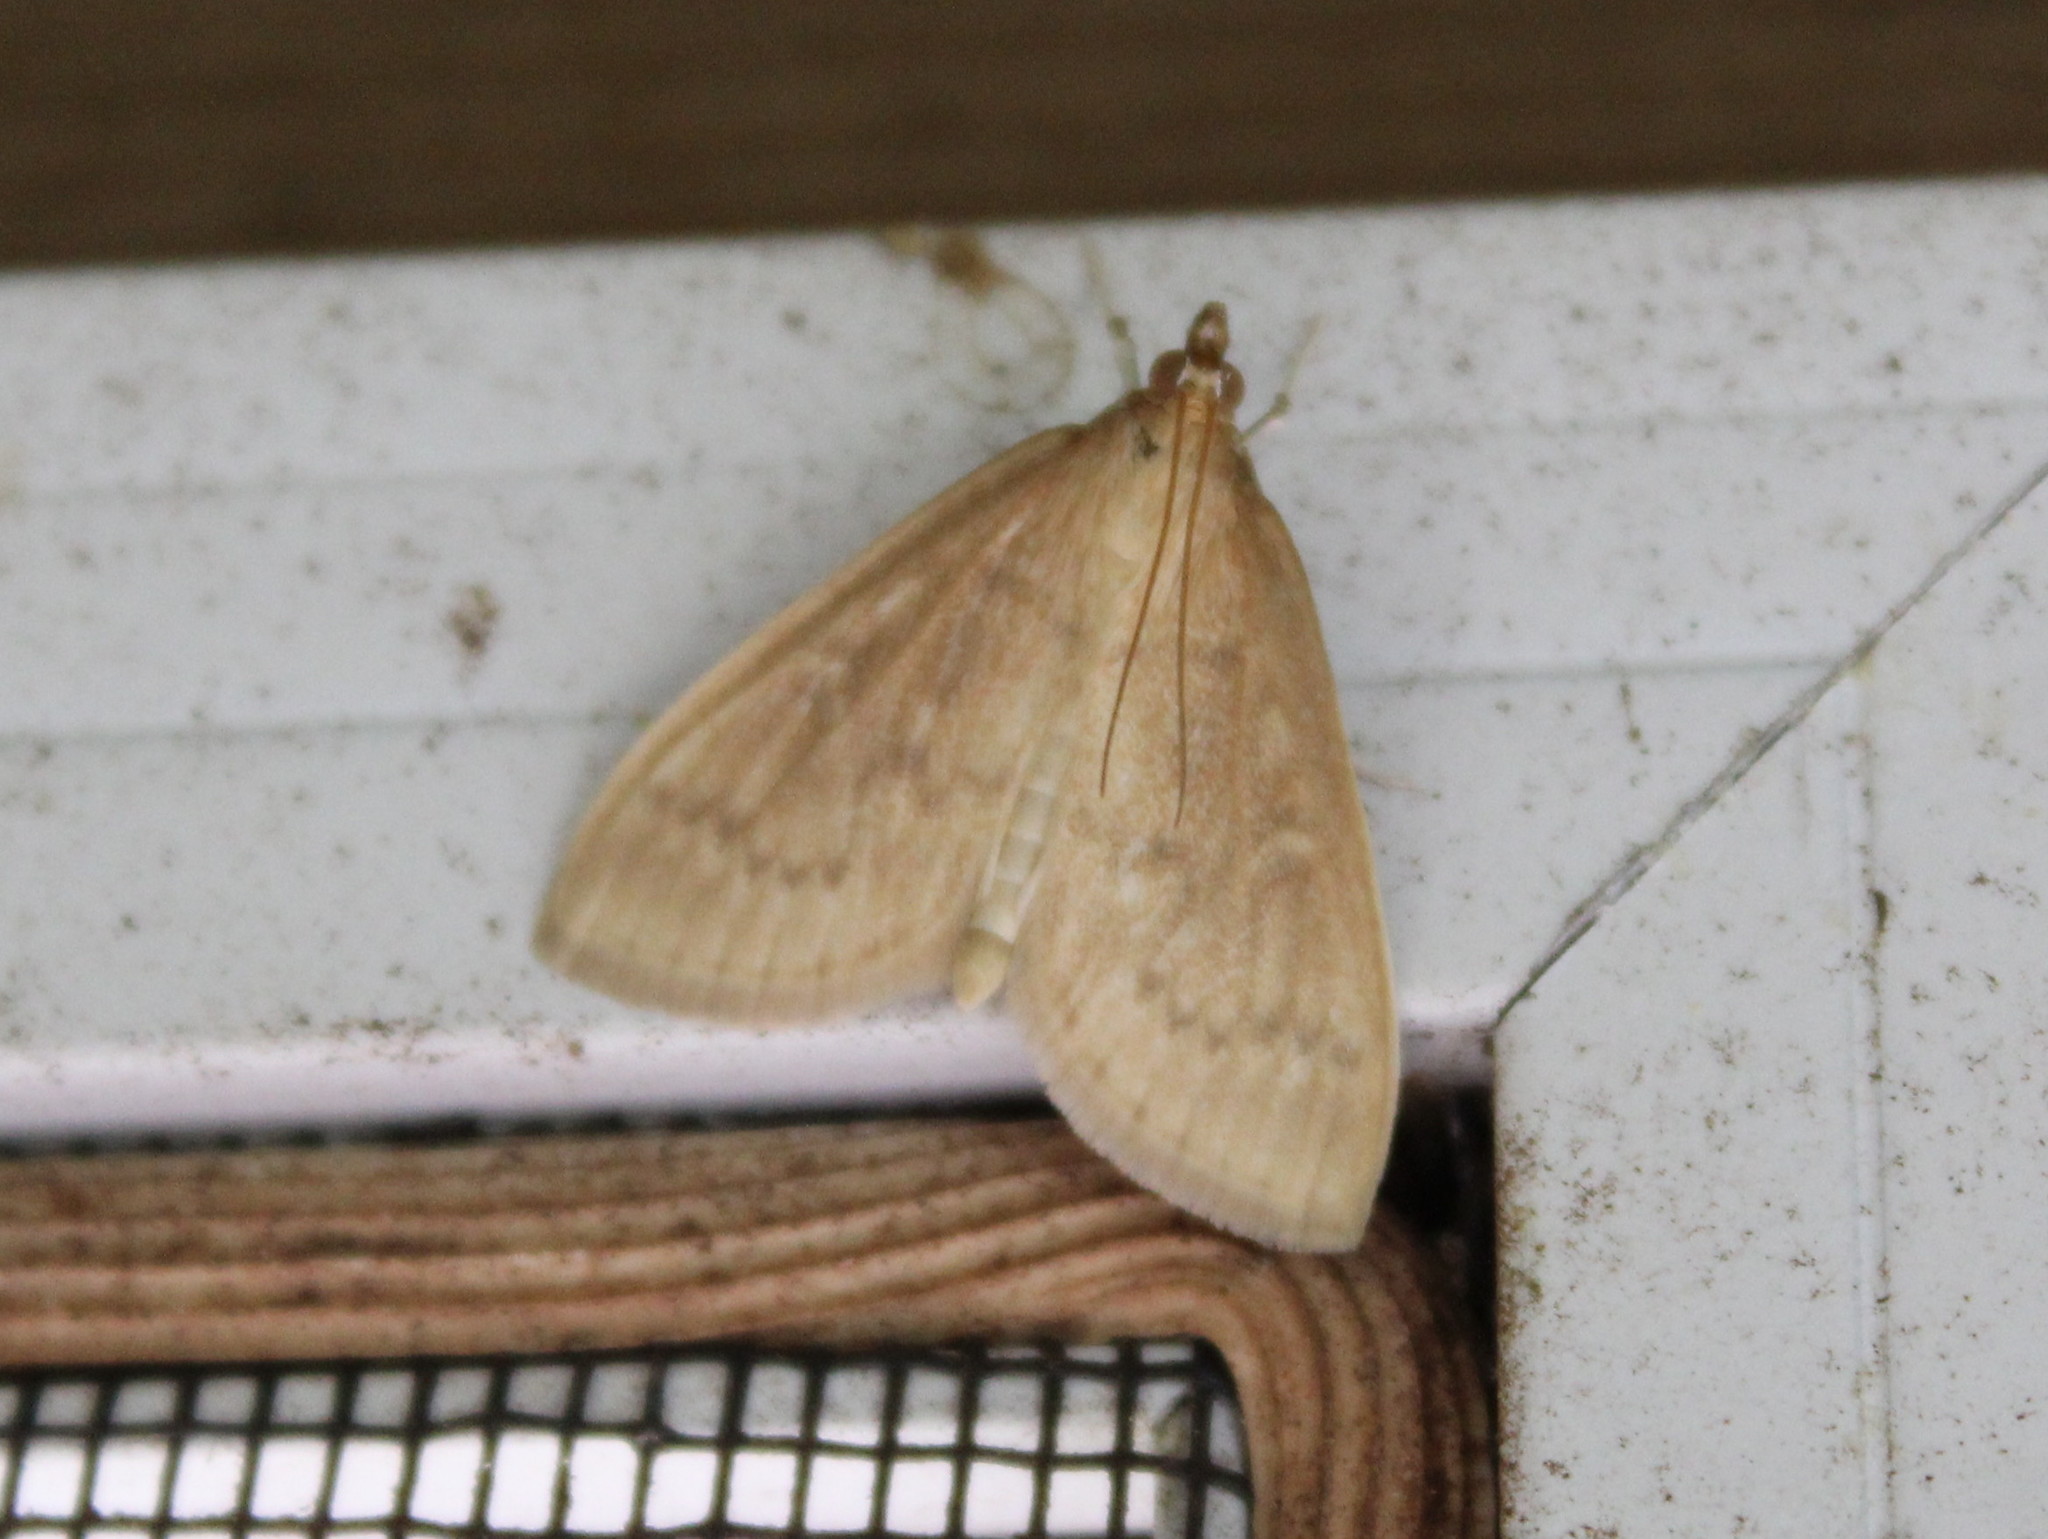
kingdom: Animalia
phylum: Arthropoda
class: Insecta
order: Lepidoptera
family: Crambidae
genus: Anania
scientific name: Anania Framinghamia helvalis
